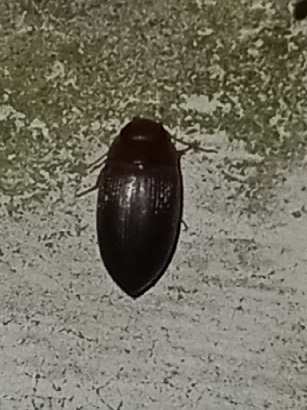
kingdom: Animalia
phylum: Arthropoda
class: Insecta
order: Coleoptera
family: Dytiscidae
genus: Copelatus
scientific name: Copelatus
